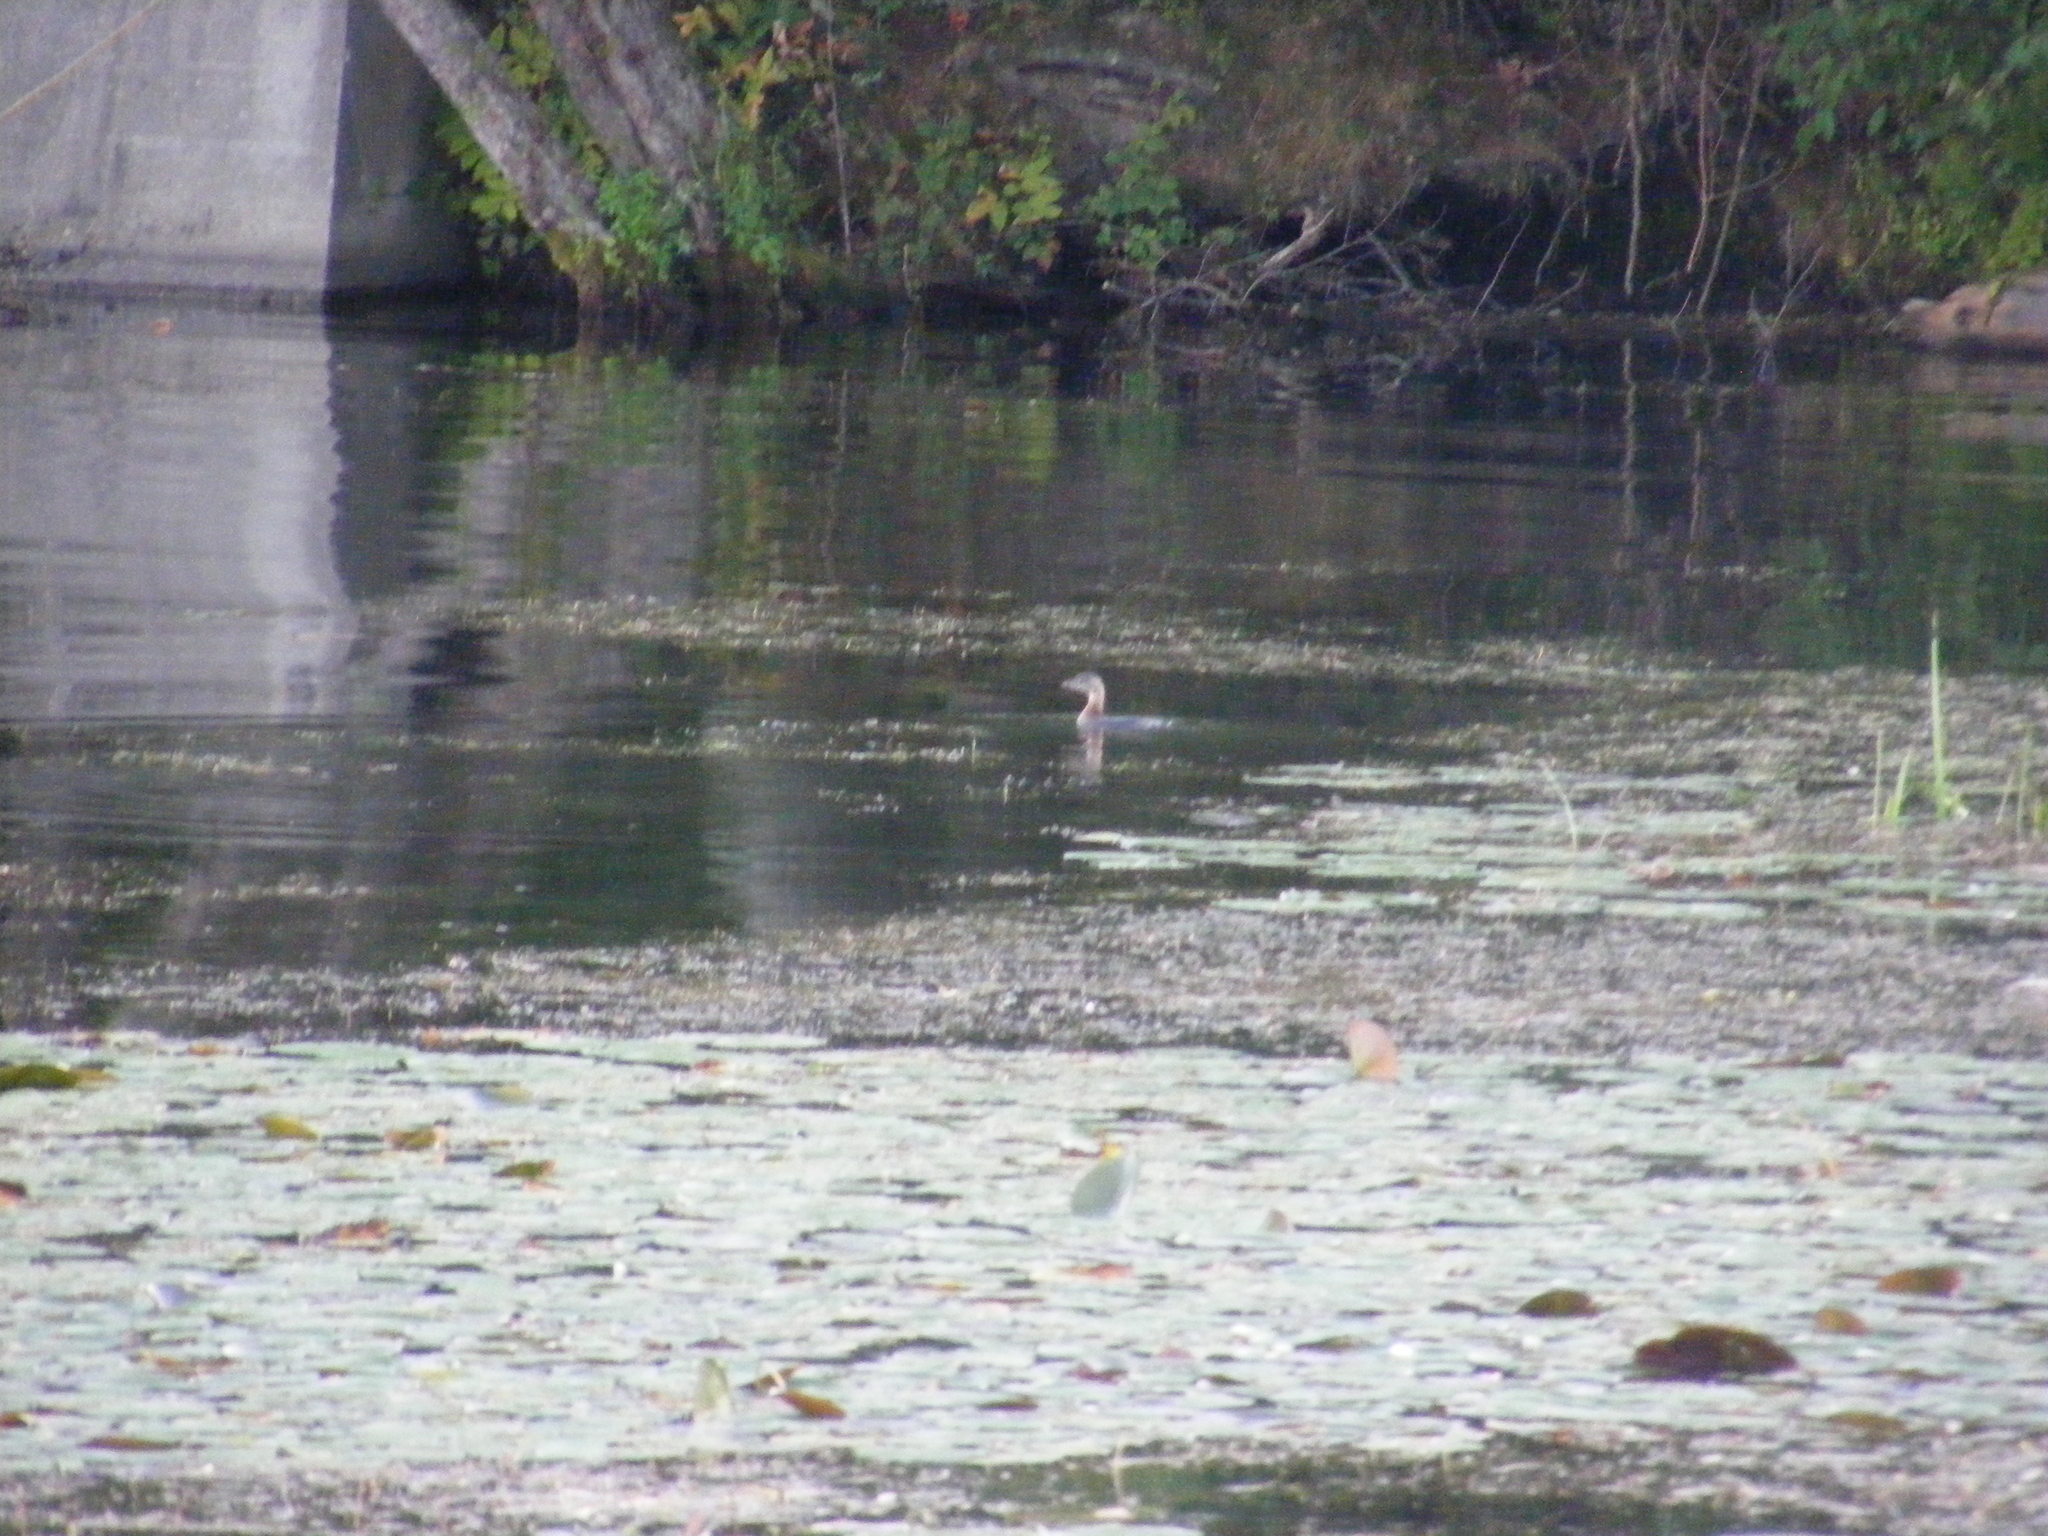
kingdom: Animalia
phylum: Chordata
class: Aves
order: Podicipediformes
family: Podicipedidae
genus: Podilymbus
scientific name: Podilymbus podiceps
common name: Pied-billed grebe
